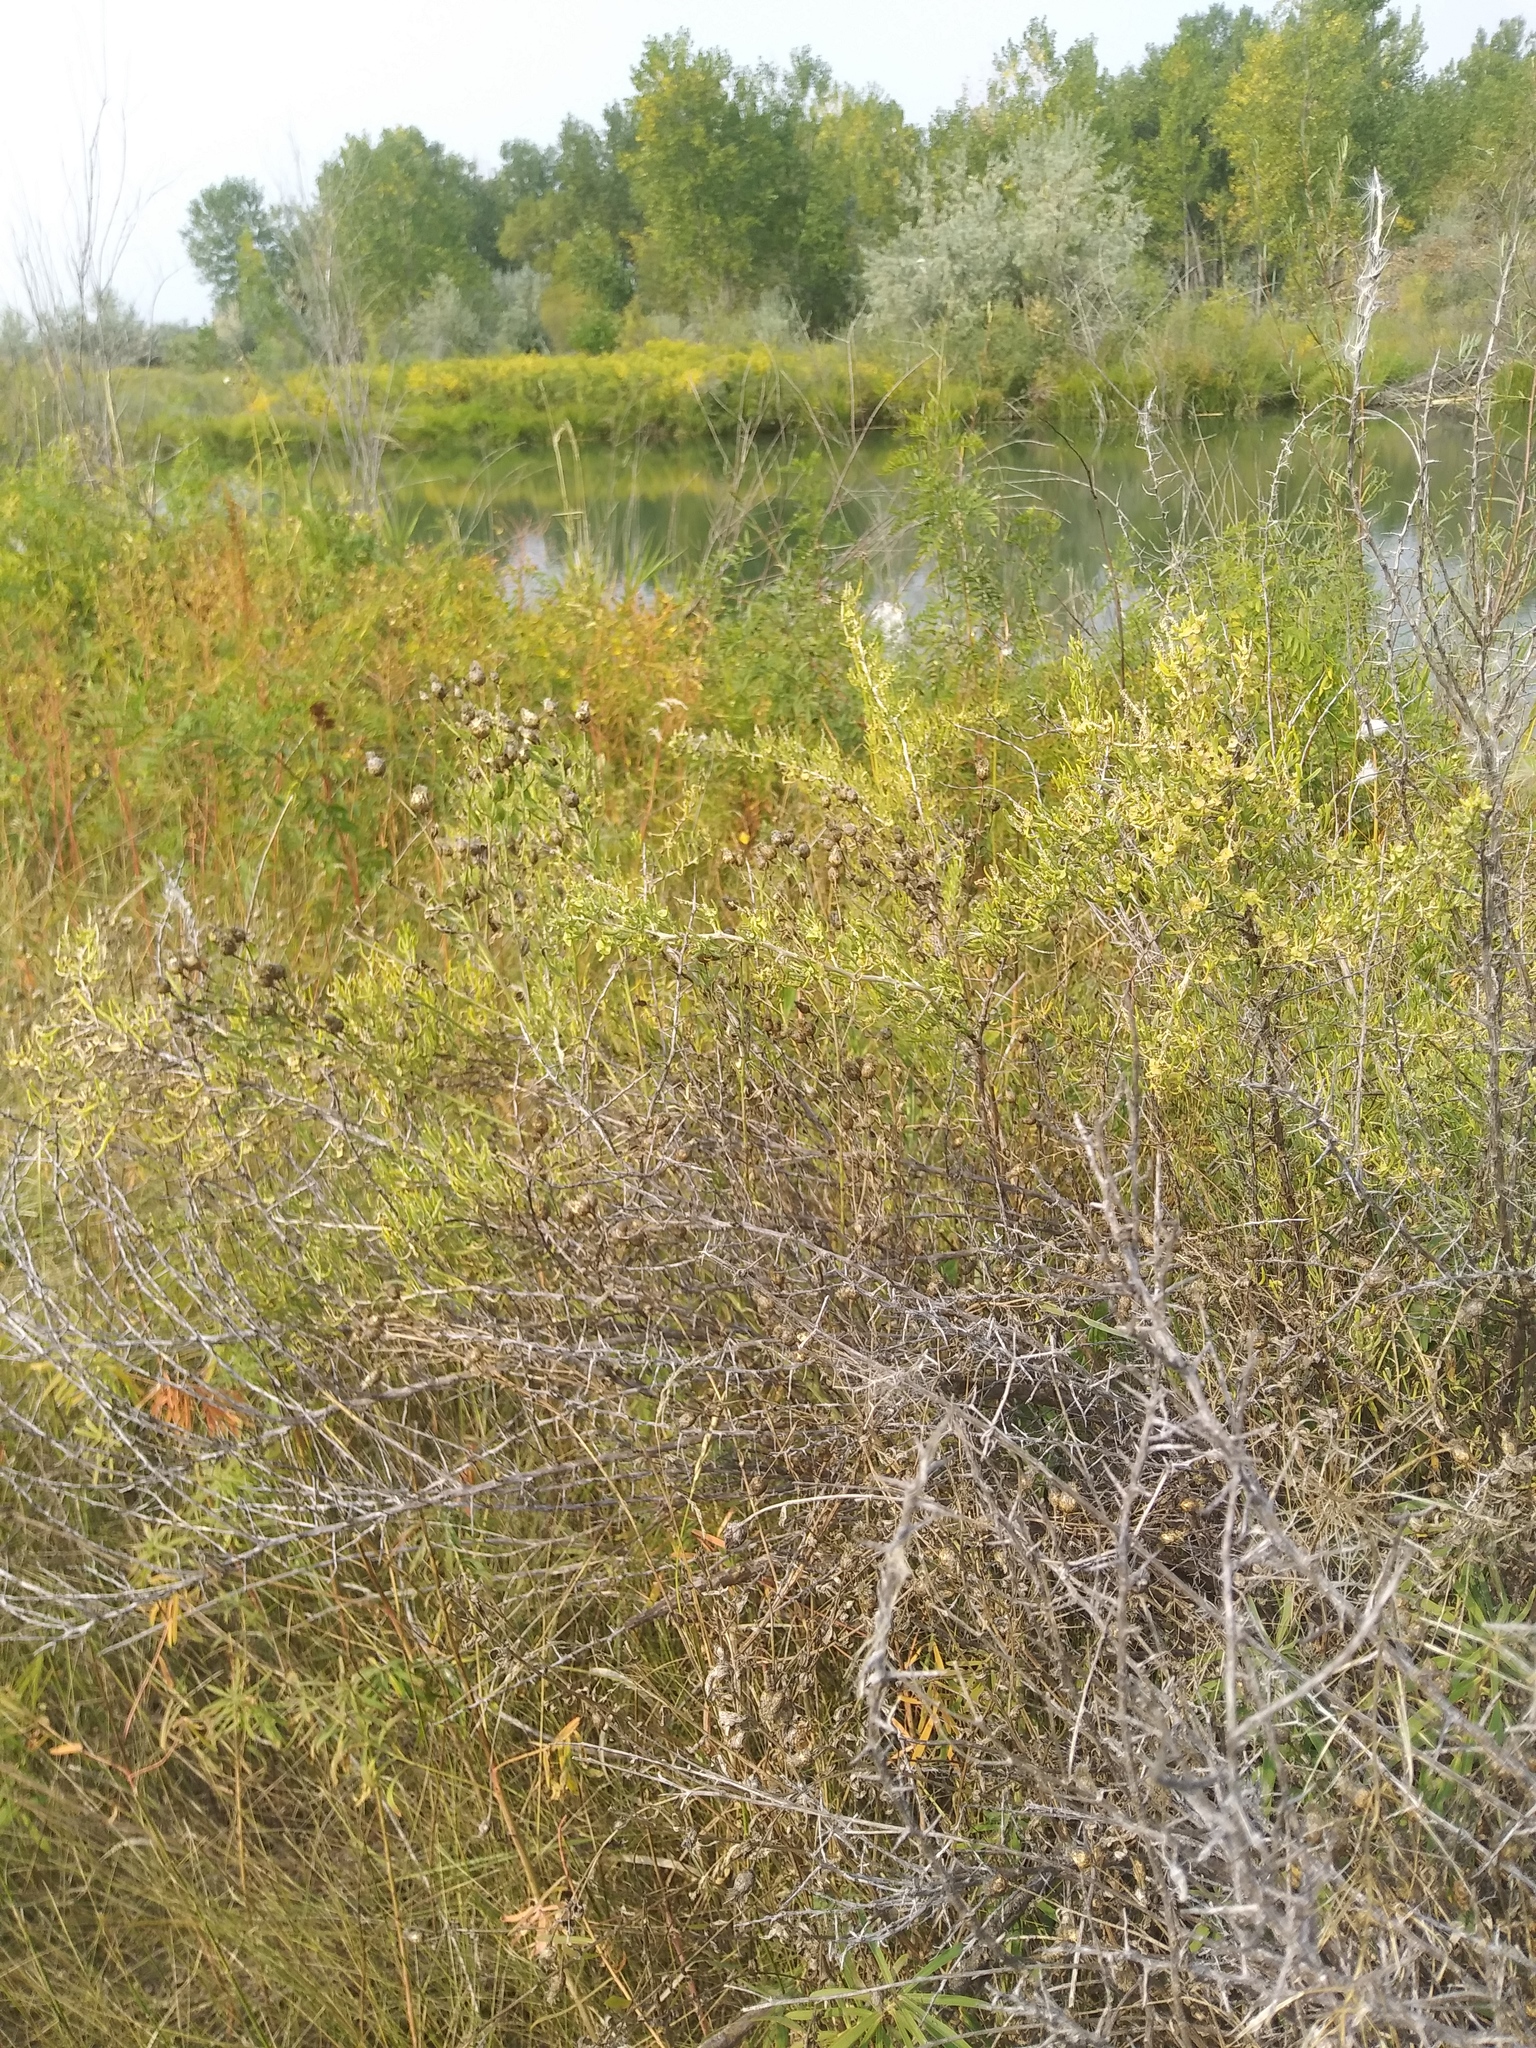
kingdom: Plantae
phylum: Tracheophyta
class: Magnoliopsida
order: Caryophyllales
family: Sarcobataceae
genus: Sarcobatus
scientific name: Sarcobatus vermiculatus
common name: Greasewood
